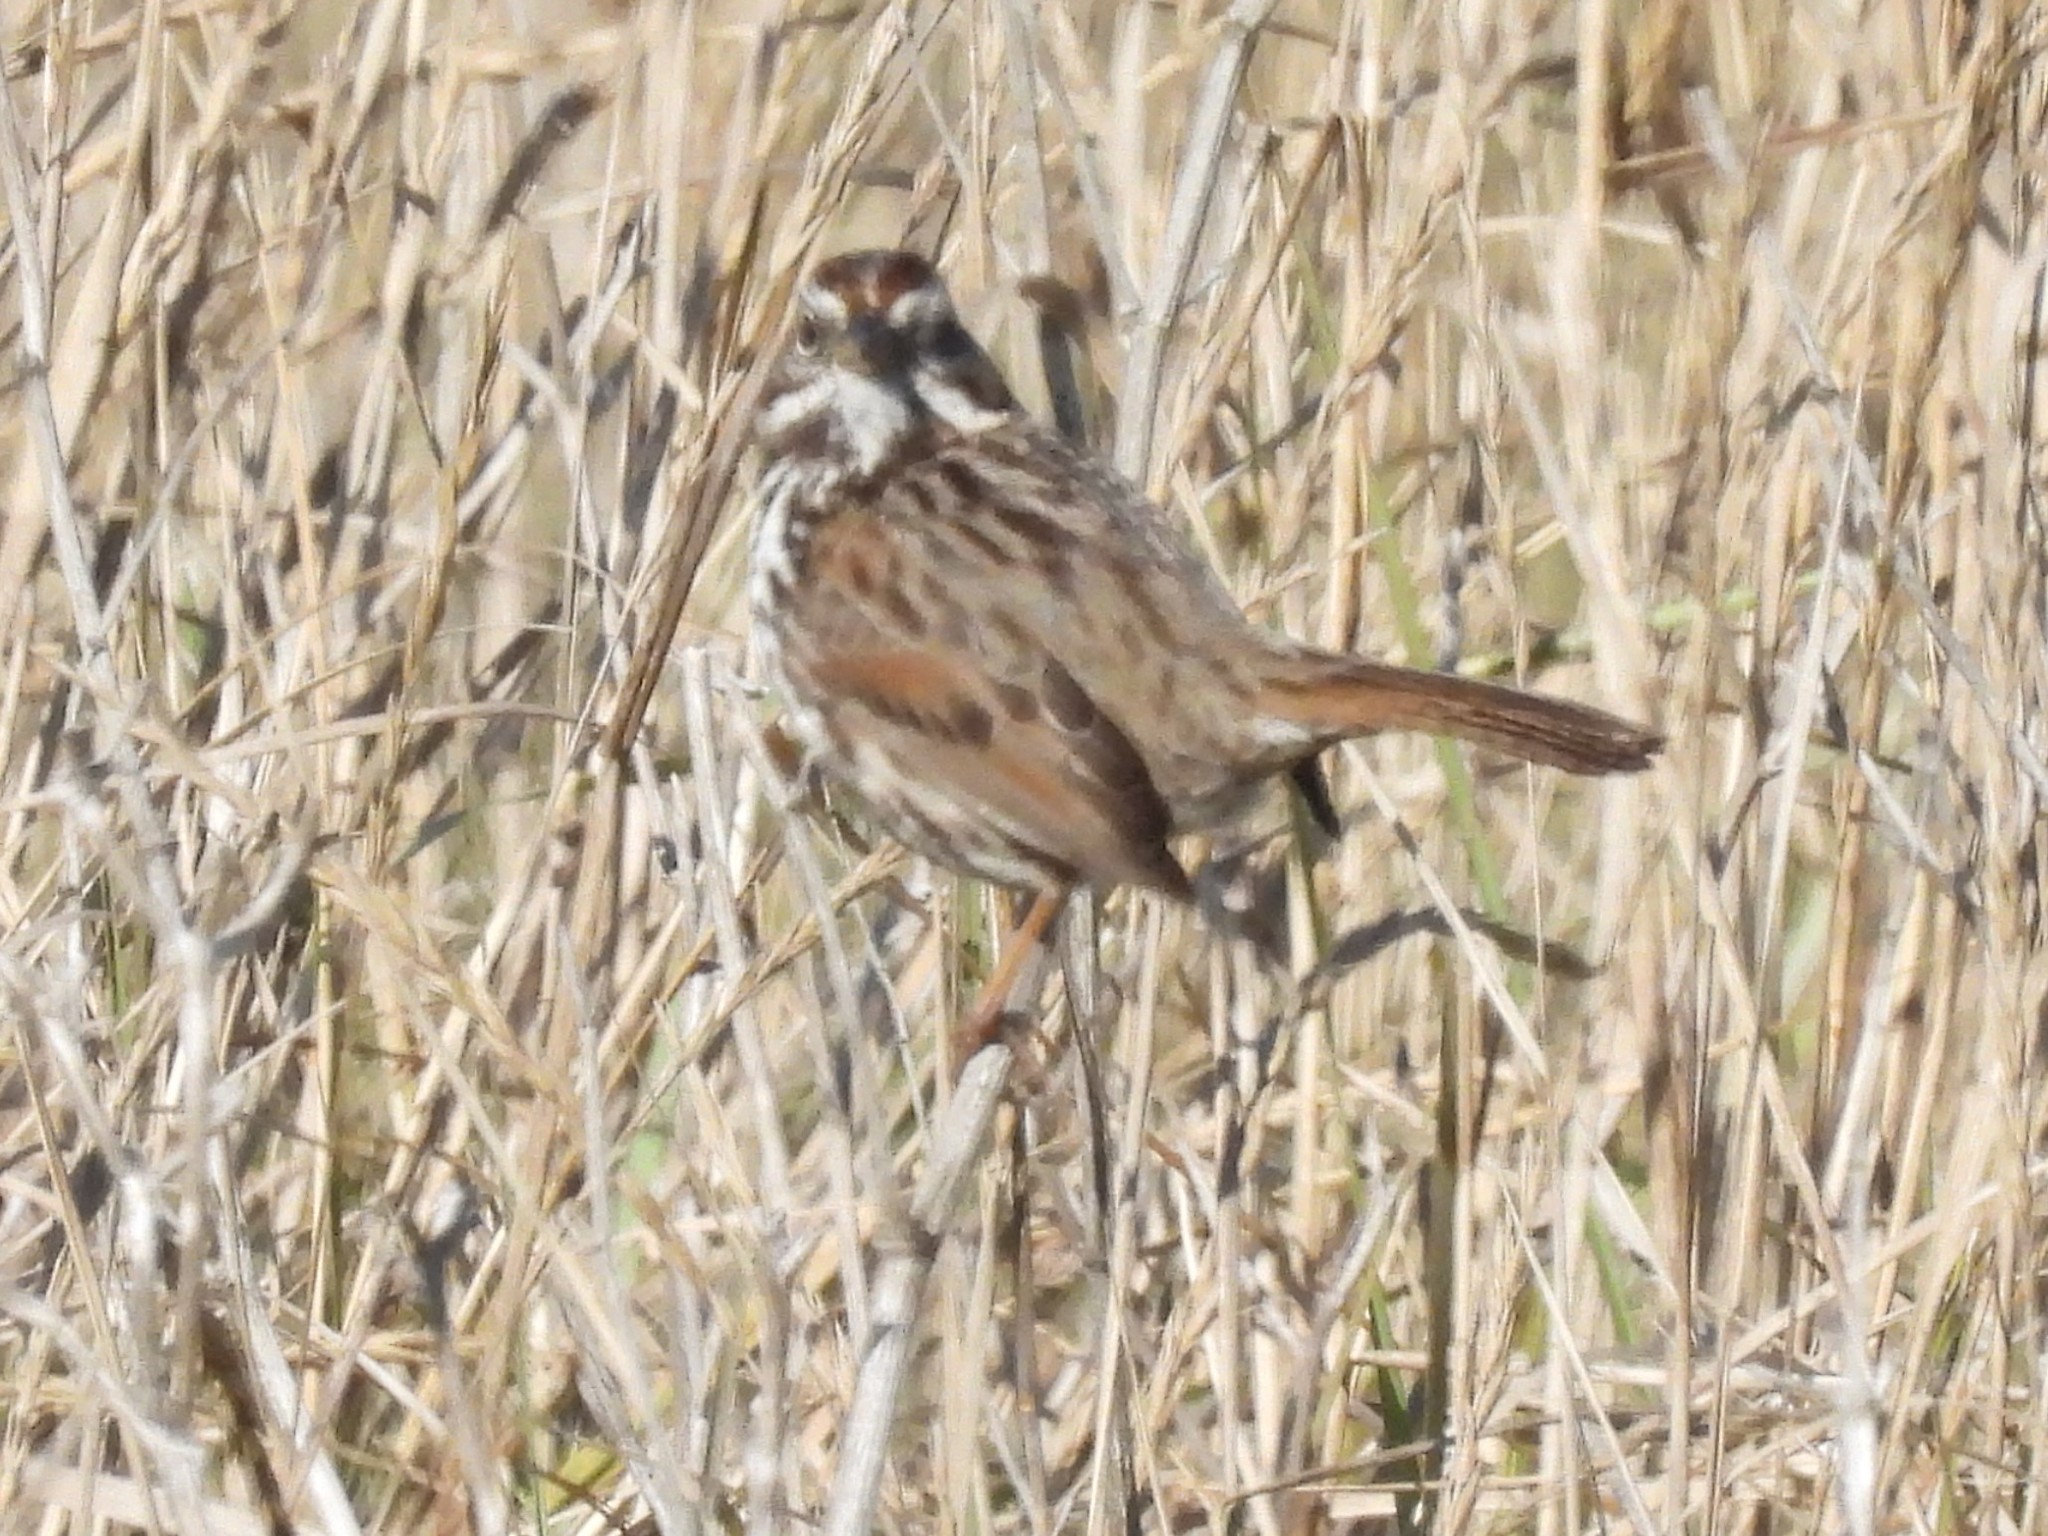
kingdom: Animalia
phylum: Chordata
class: Aves
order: Passeriformes
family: Passerellidae
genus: Melospiza
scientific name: Melospiza melodia
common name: Song sparrow
